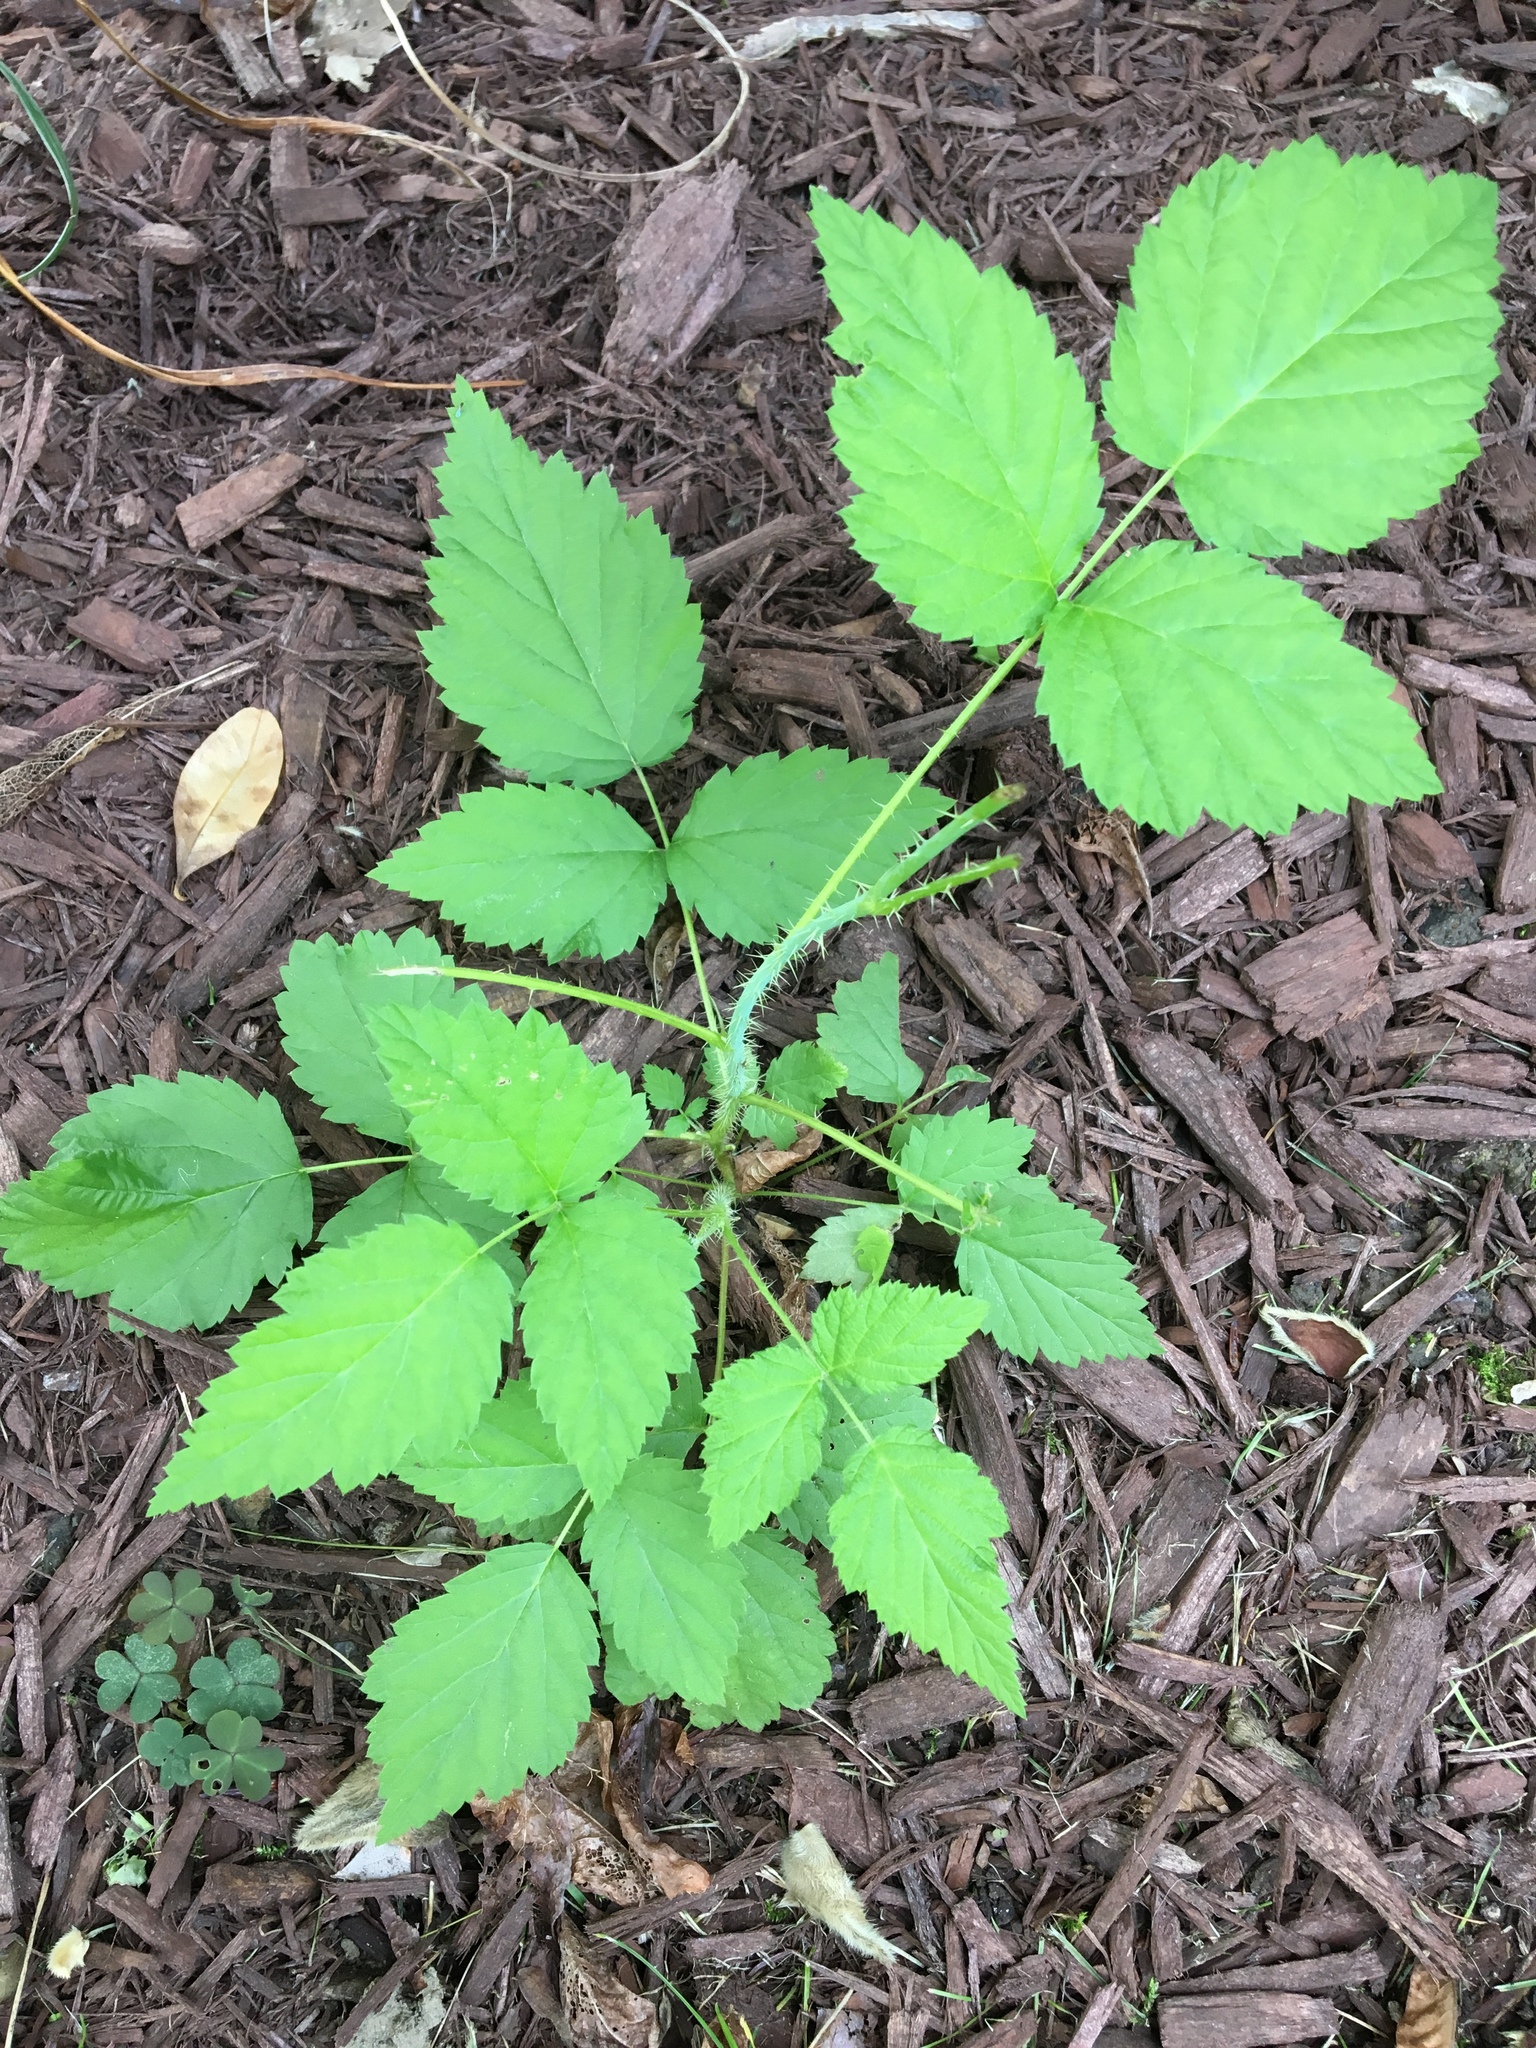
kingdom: Plantae
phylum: Tracheophyta
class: Magnoliopsida
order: Rosales
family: Rosaceae
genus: Rubus
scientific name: Rubus occidentalis
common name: Black raspberry
